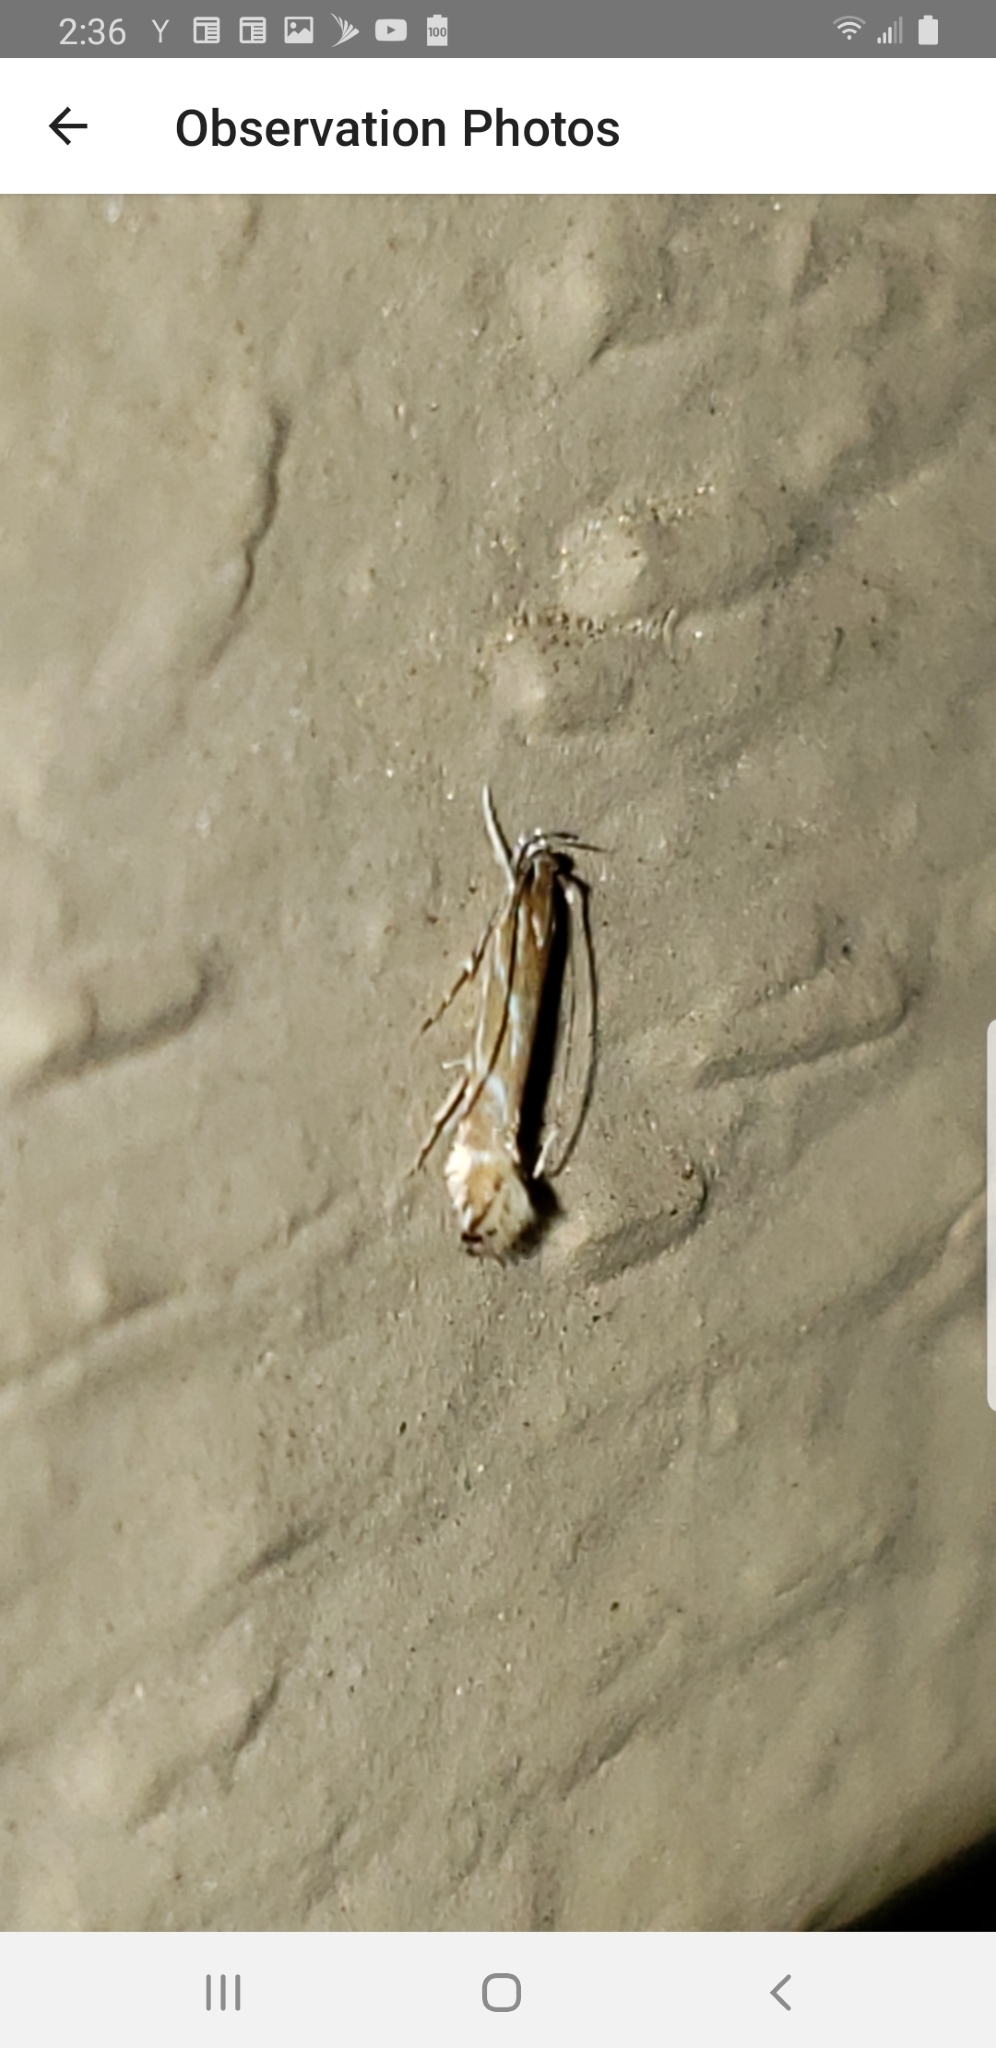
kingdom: Animalia
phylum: Arthropoda
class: Insecta
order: Lepidoptera
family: Cosmopterigidae
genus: Tanygona
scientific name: Tanygona lignicolorella
